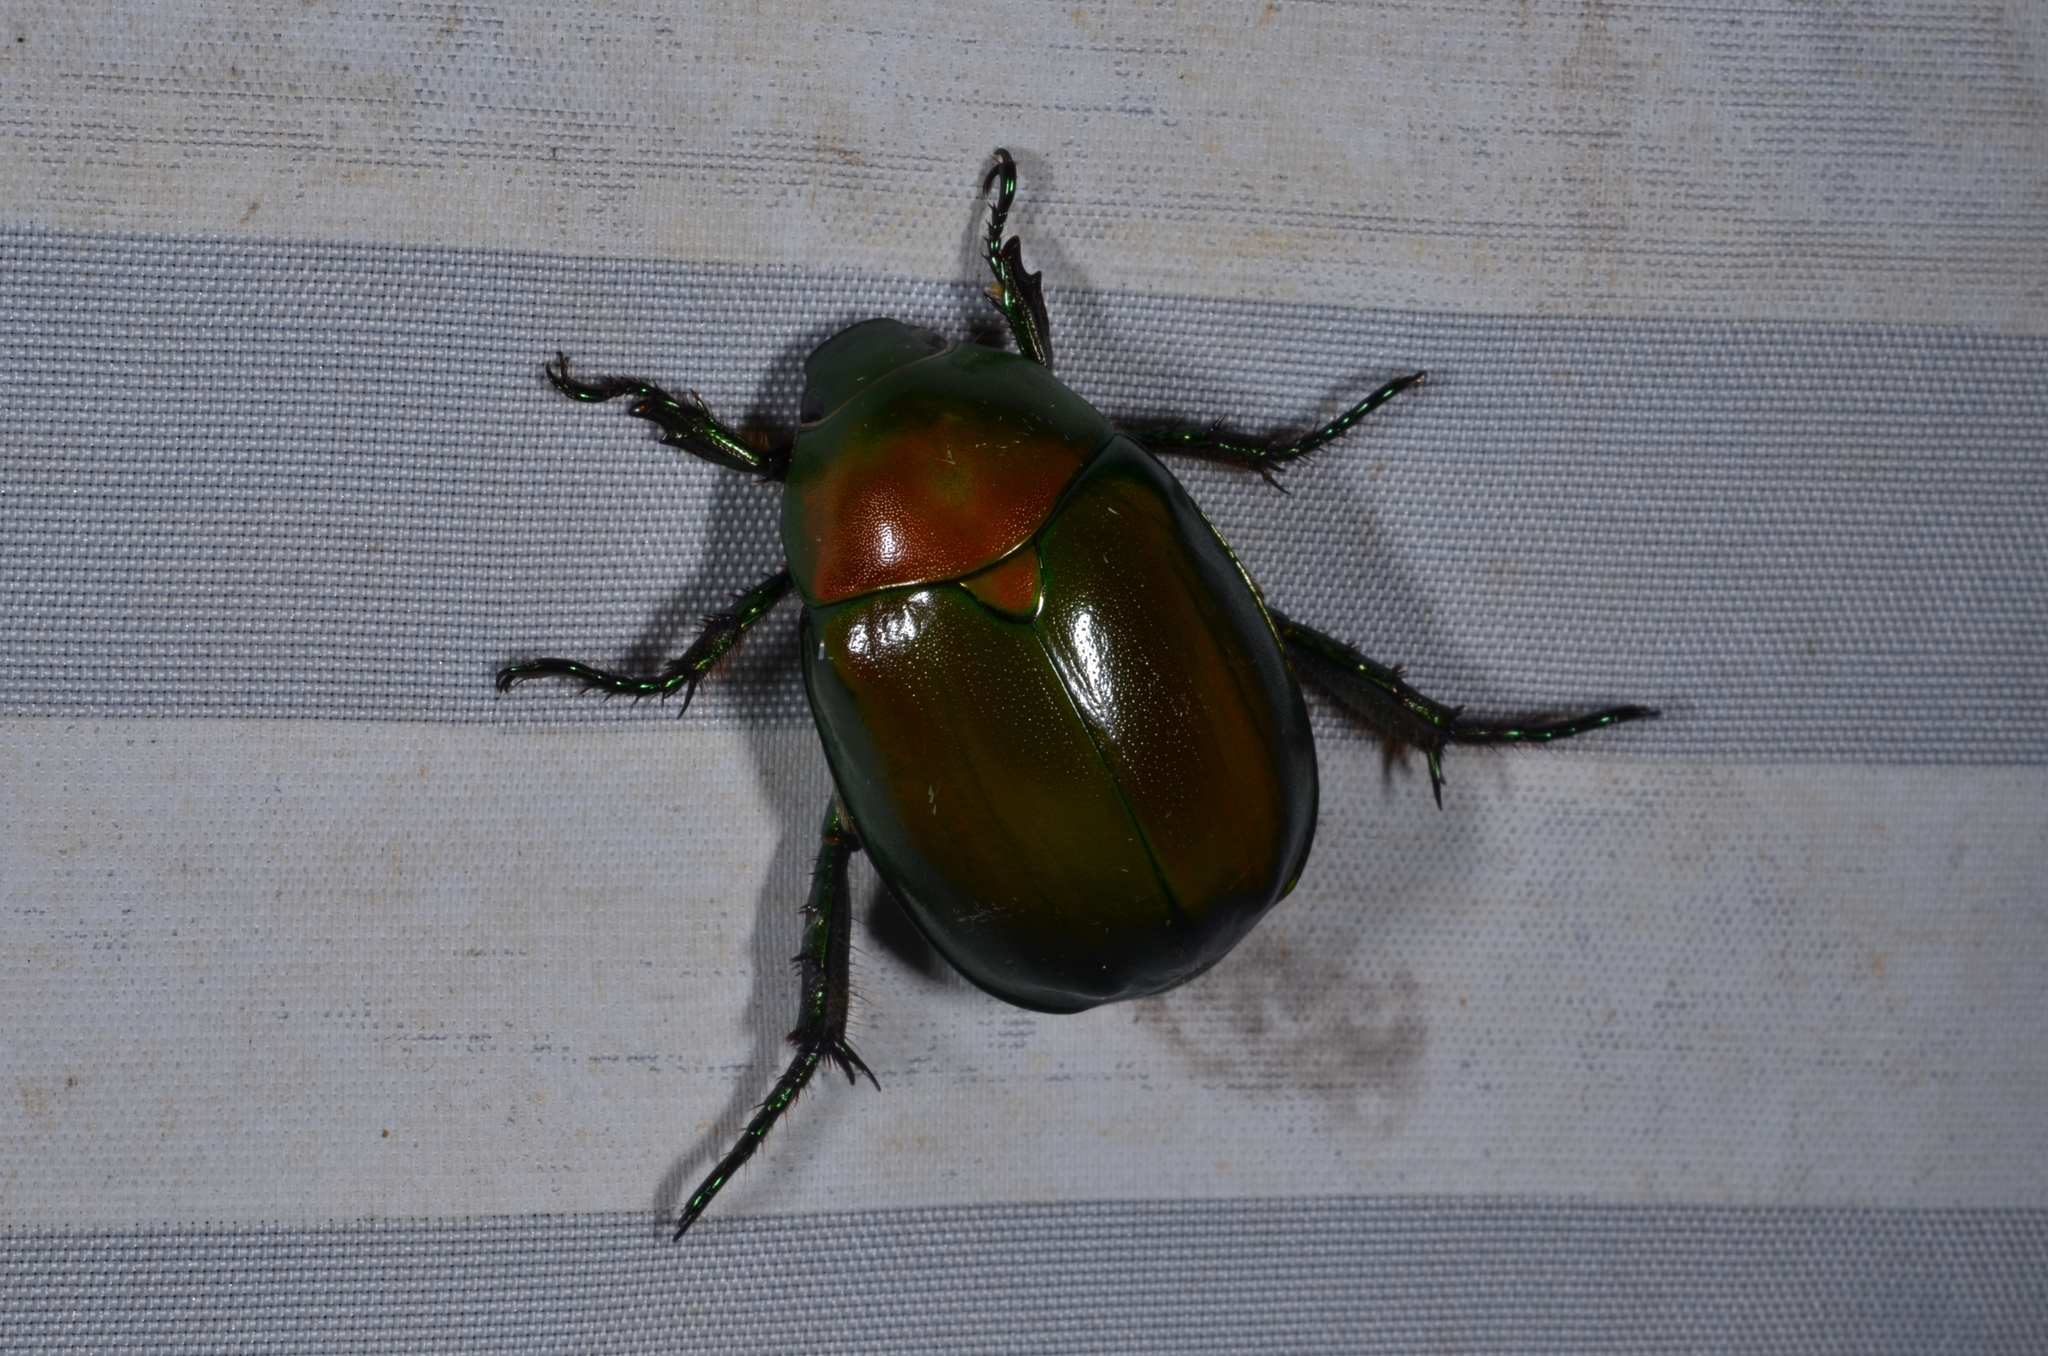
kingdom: Animalia
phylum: Arthropoda
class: Insecta
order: Coleoptera
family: Scarabaeidae
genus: Anomala
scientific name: Anomala virens
